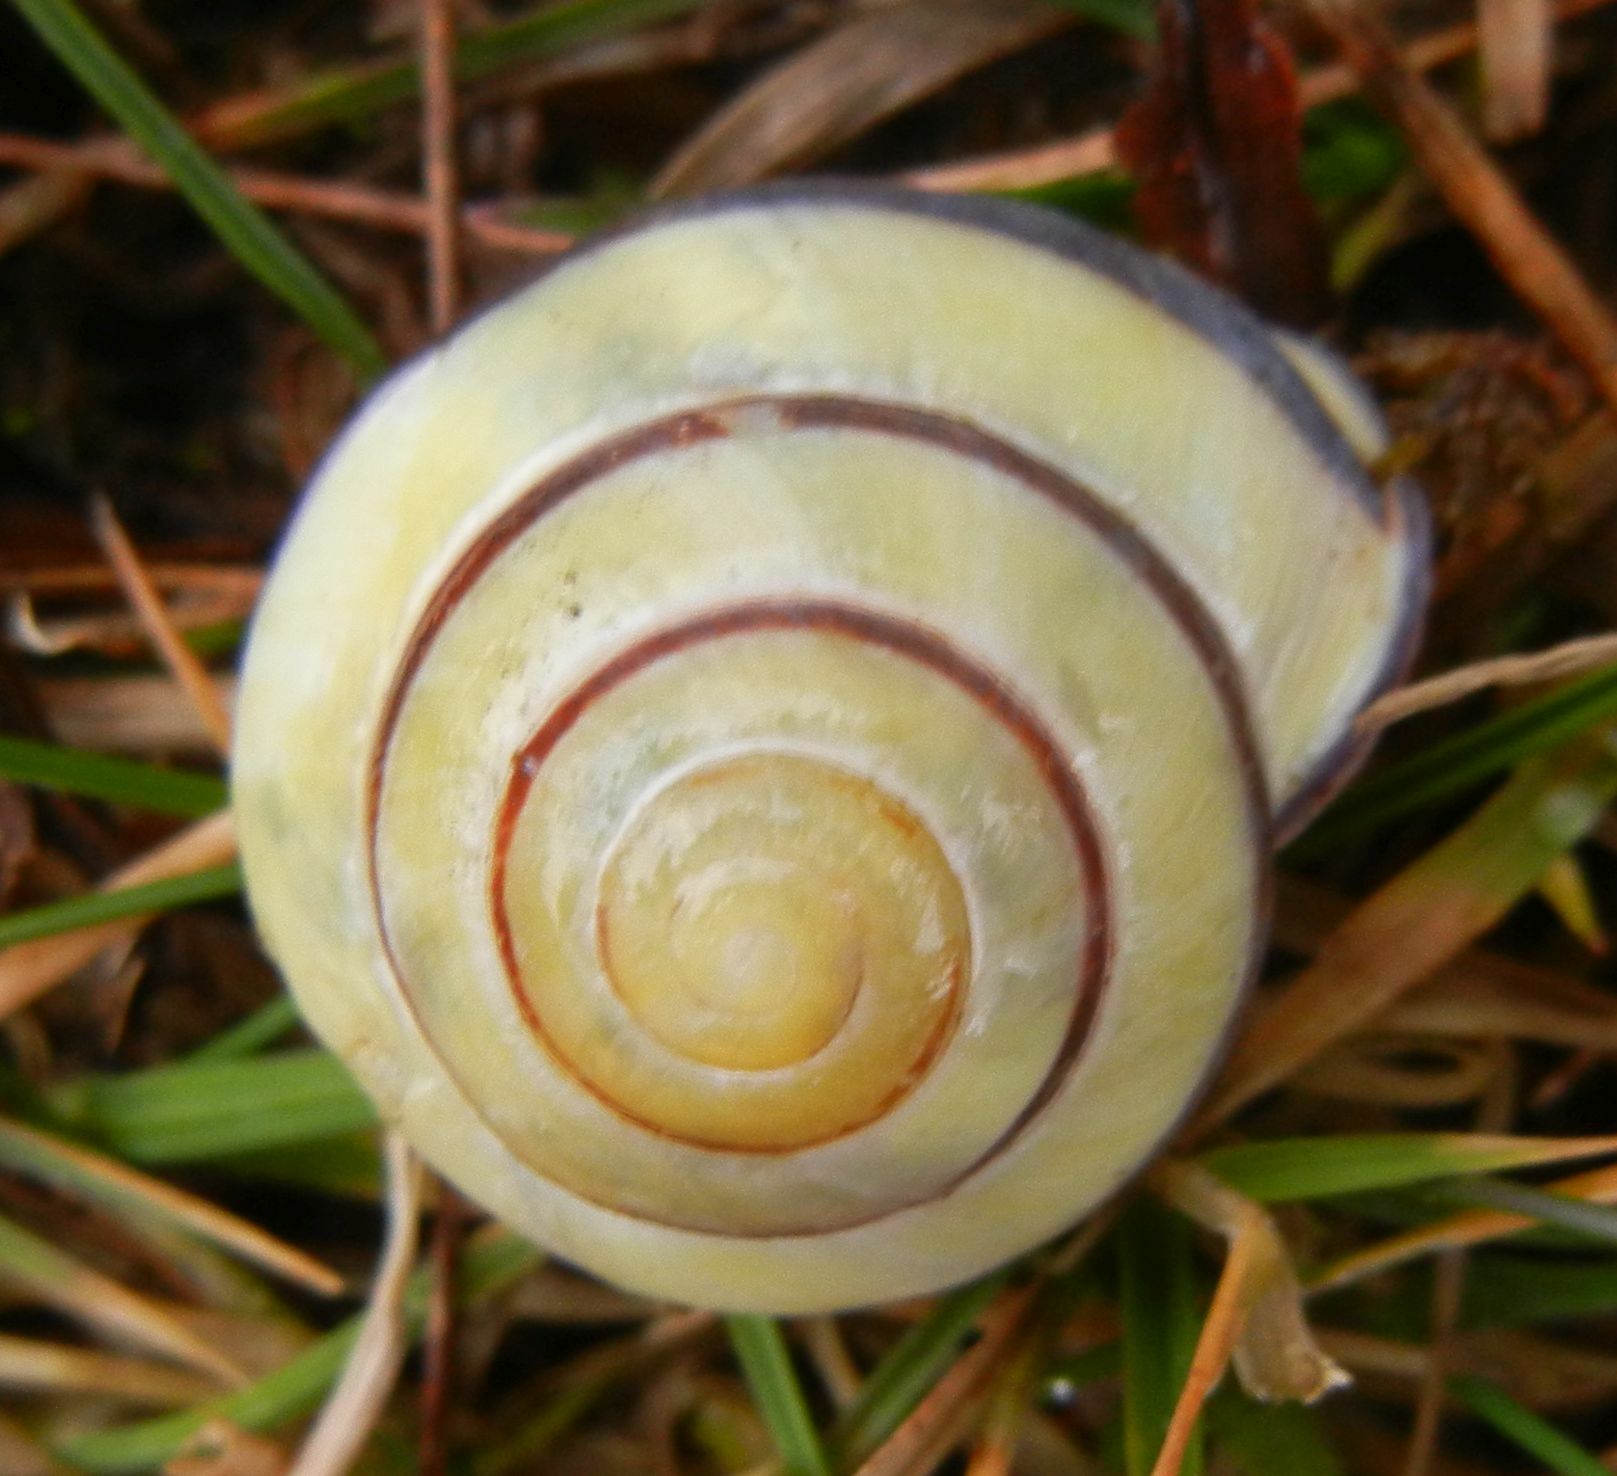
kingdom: Animalia
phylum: Mollusca
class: Gastropoda
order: Stylommatophora
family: Helicidae
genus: Cepaea
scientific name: Cepaea nemoralis
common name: Grovesnail
